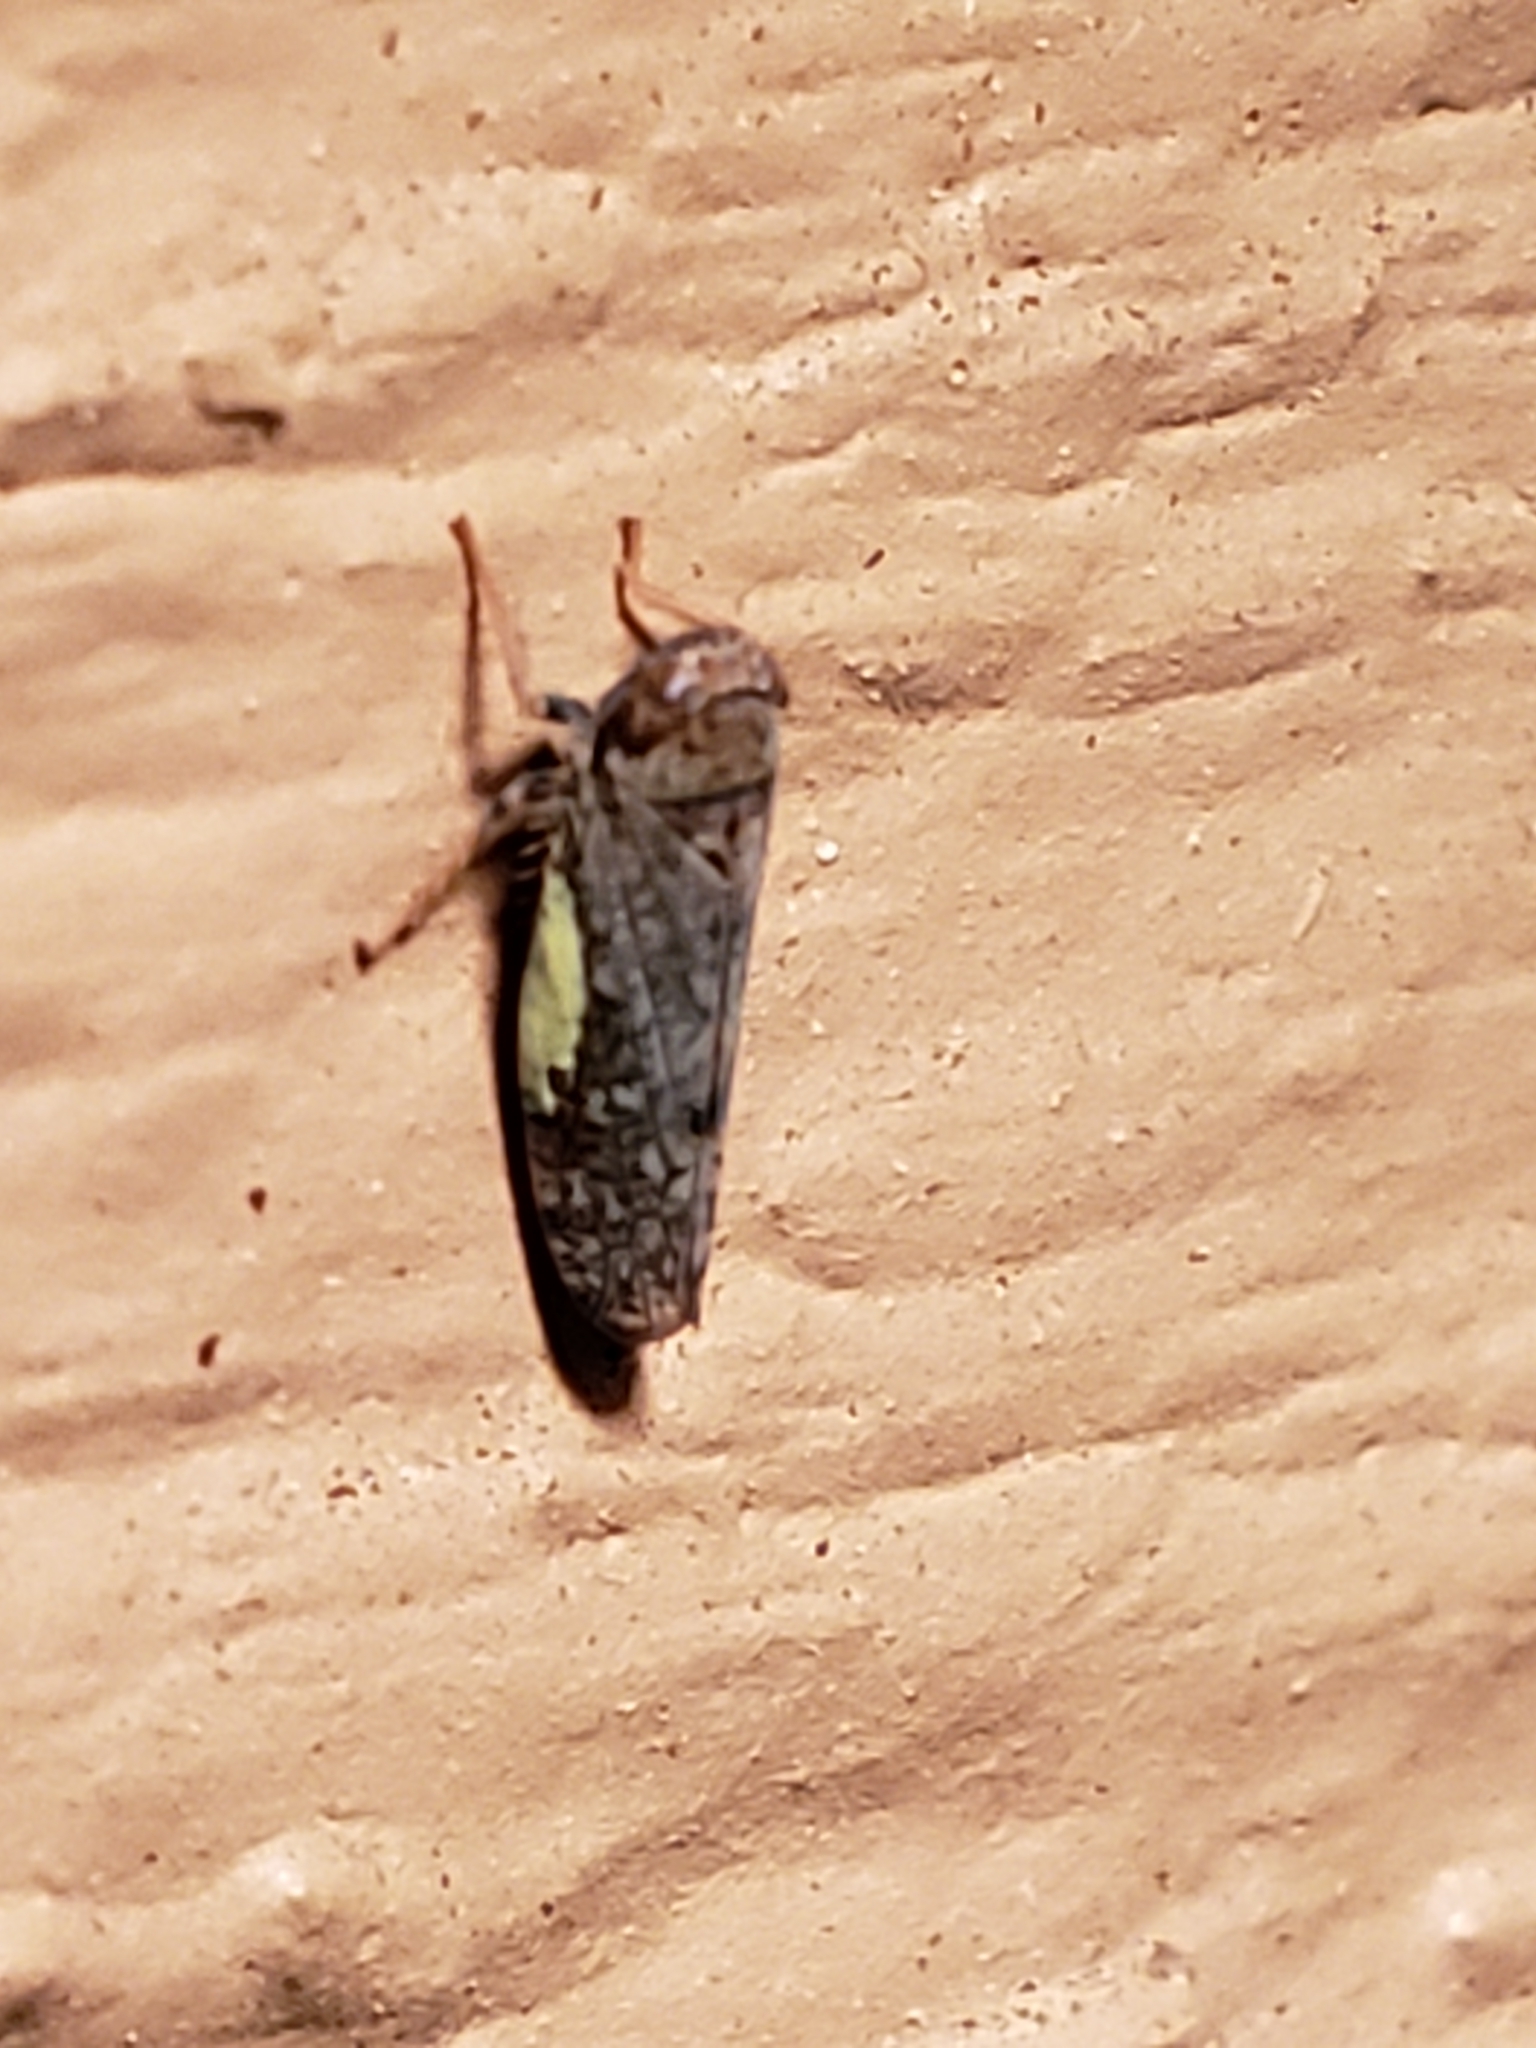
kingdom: Animalia
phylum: Arthropoda
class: Insecta
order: Hemiptera
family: Cicadellidae
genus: Orientus
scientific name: Orientus ishidae
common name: Japanese leafhopper
